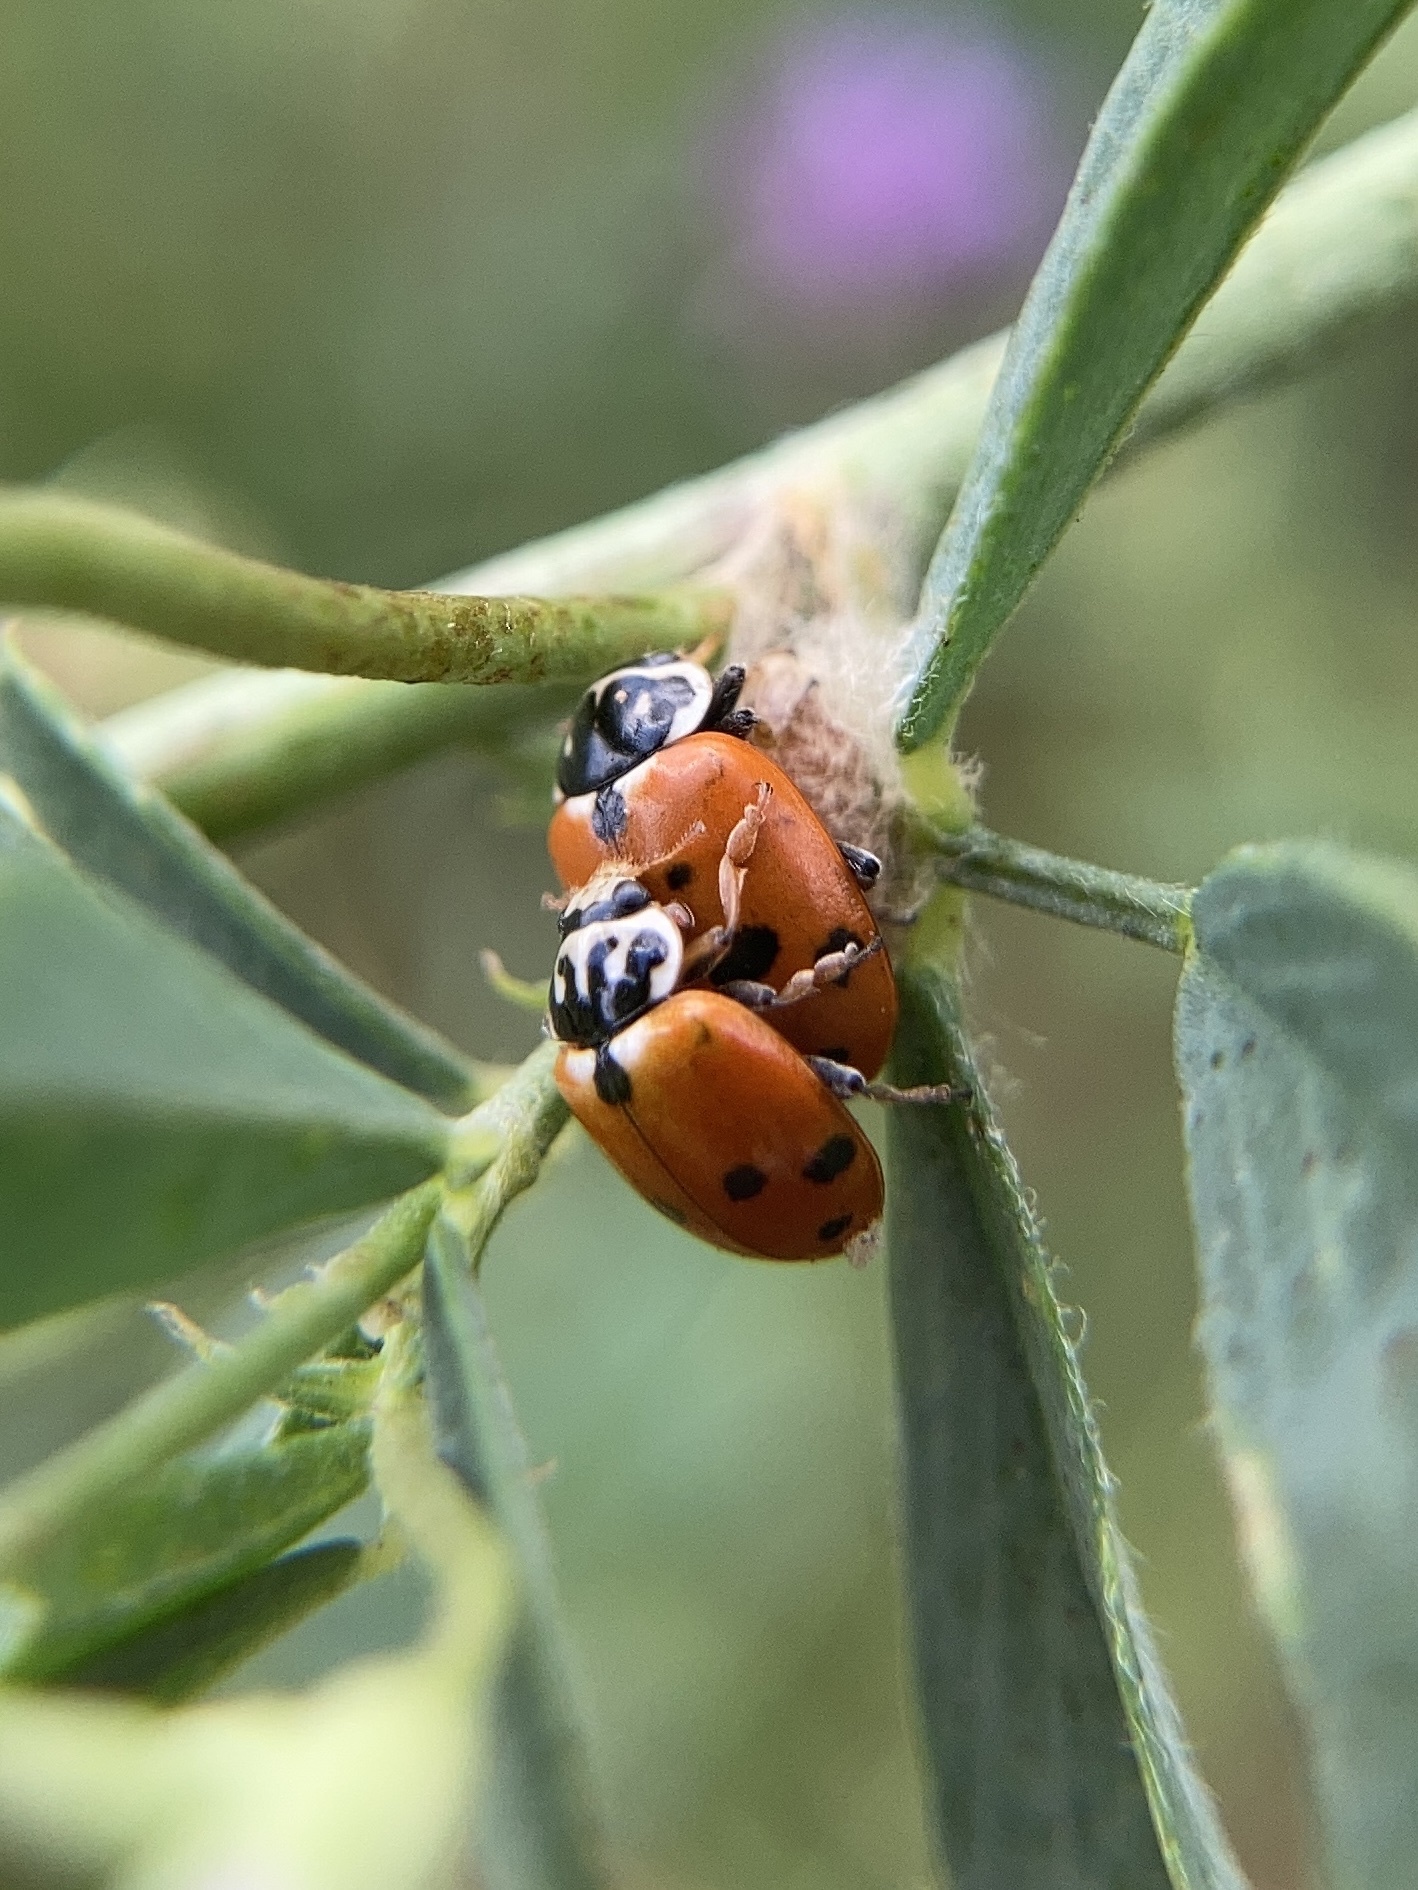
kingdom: Animalia
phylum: Arthropoda
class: Insecta
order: Coleoptera
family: Coccinellidae
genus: Hippodamia
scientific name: Hippodamia variegata
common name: Ladybird beetle
